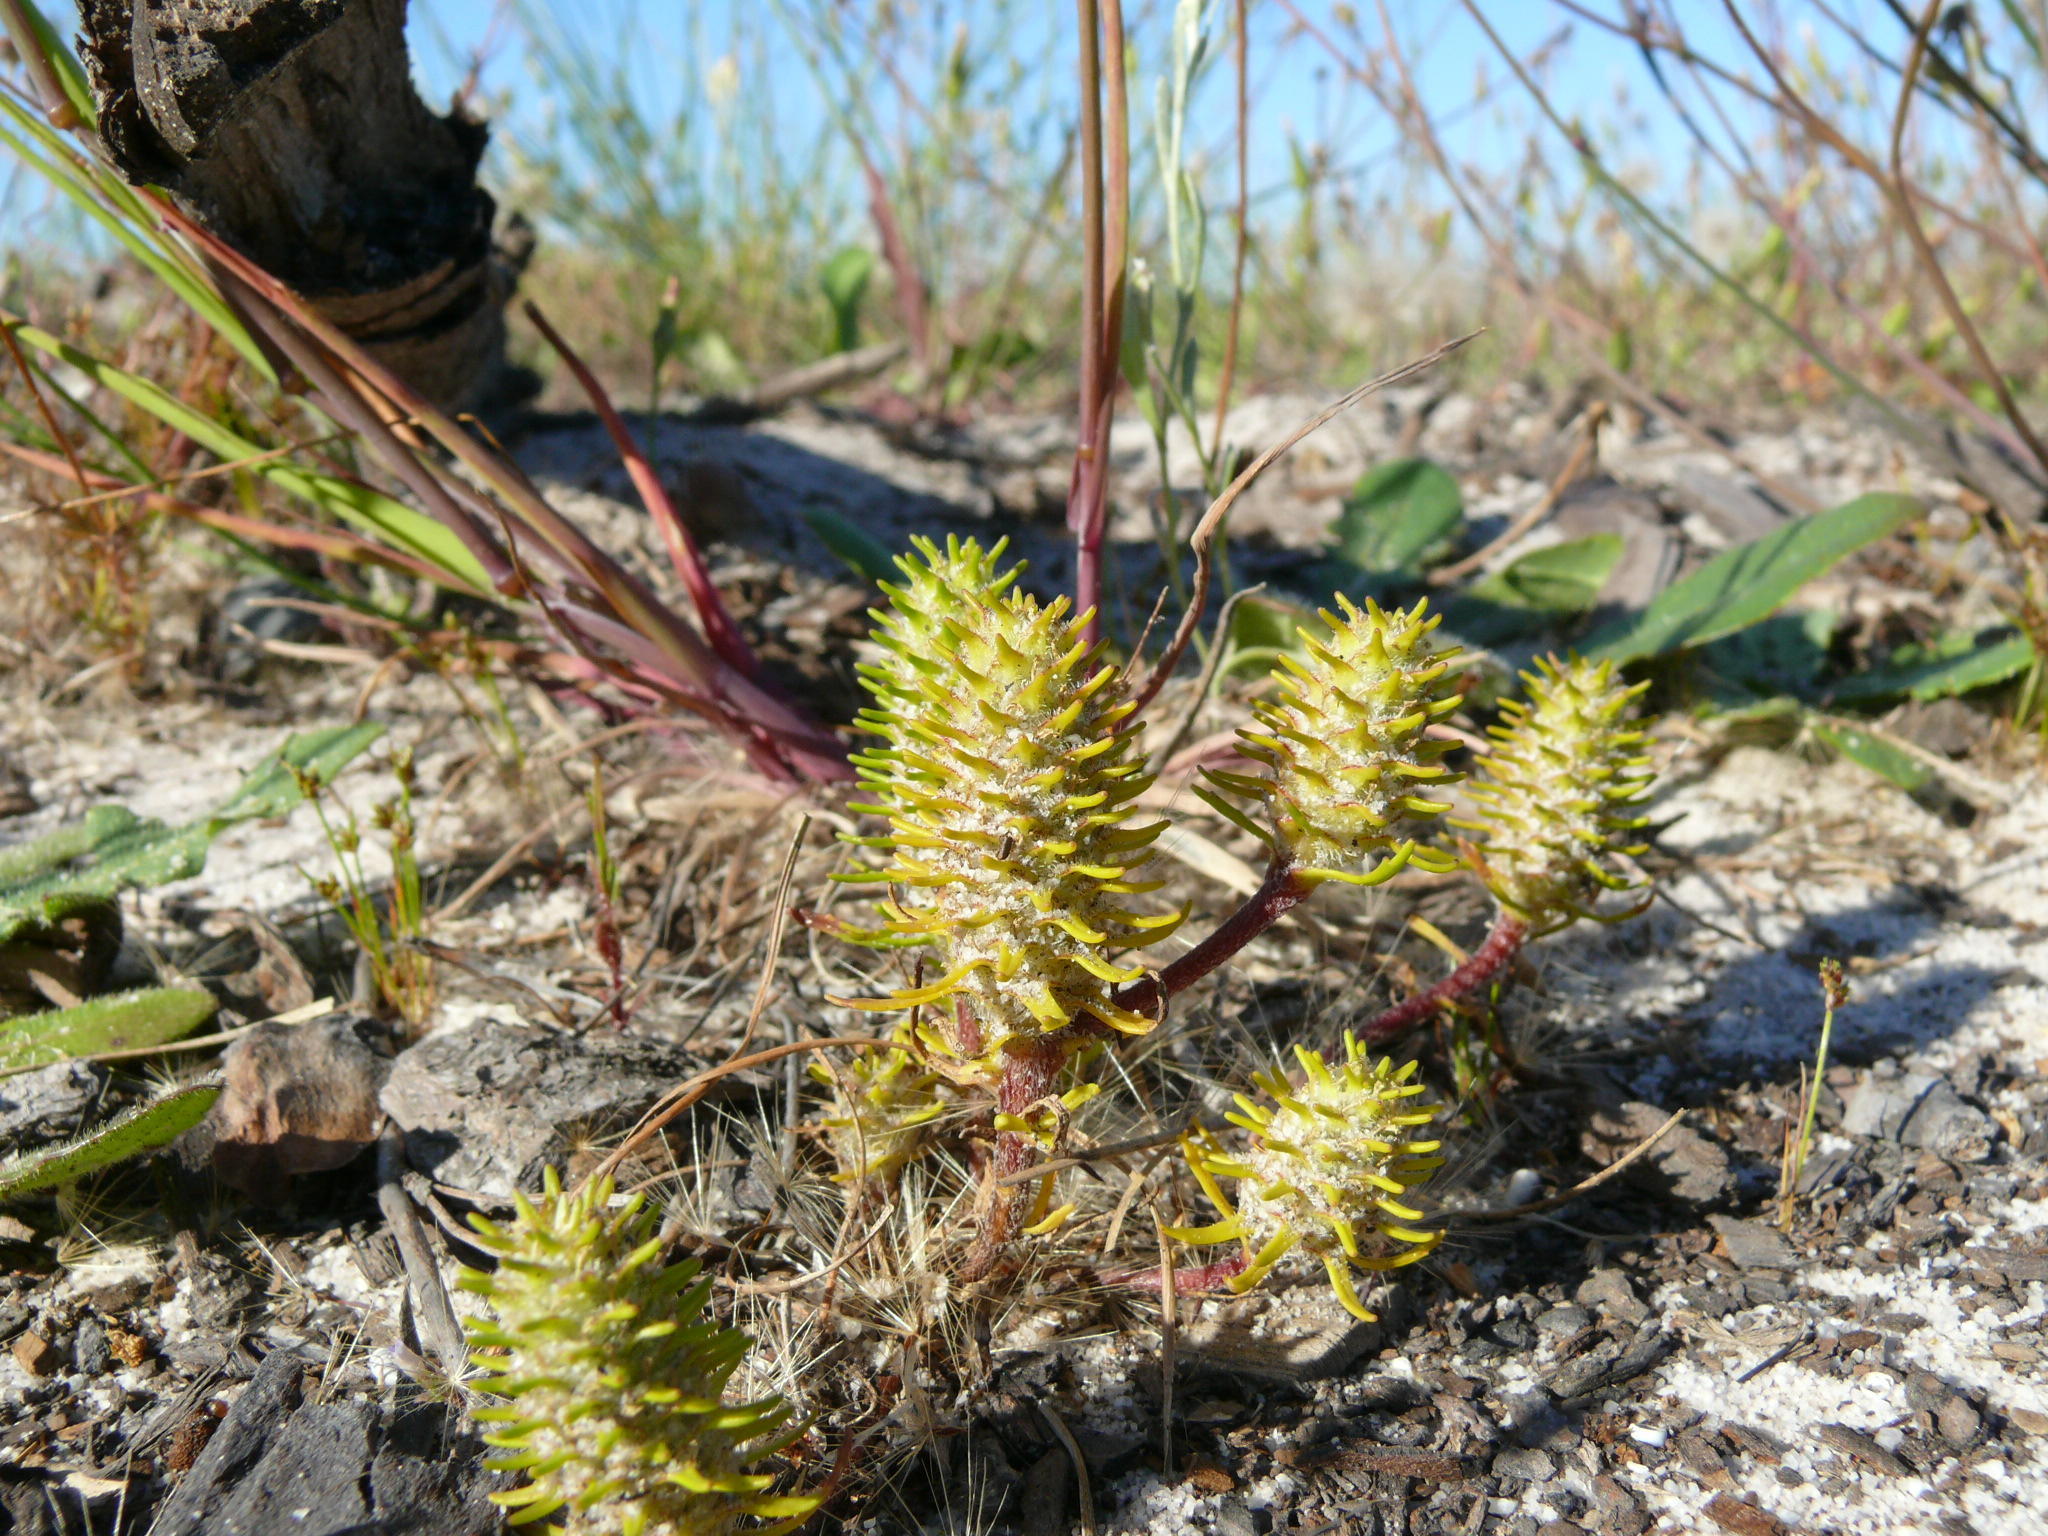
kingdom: Plantae
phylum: Tracheophyta
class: Magnoliopsida
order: Lamiales
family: Scrophulariaceae
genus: Dischisma
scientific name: Dischisma capitatum
